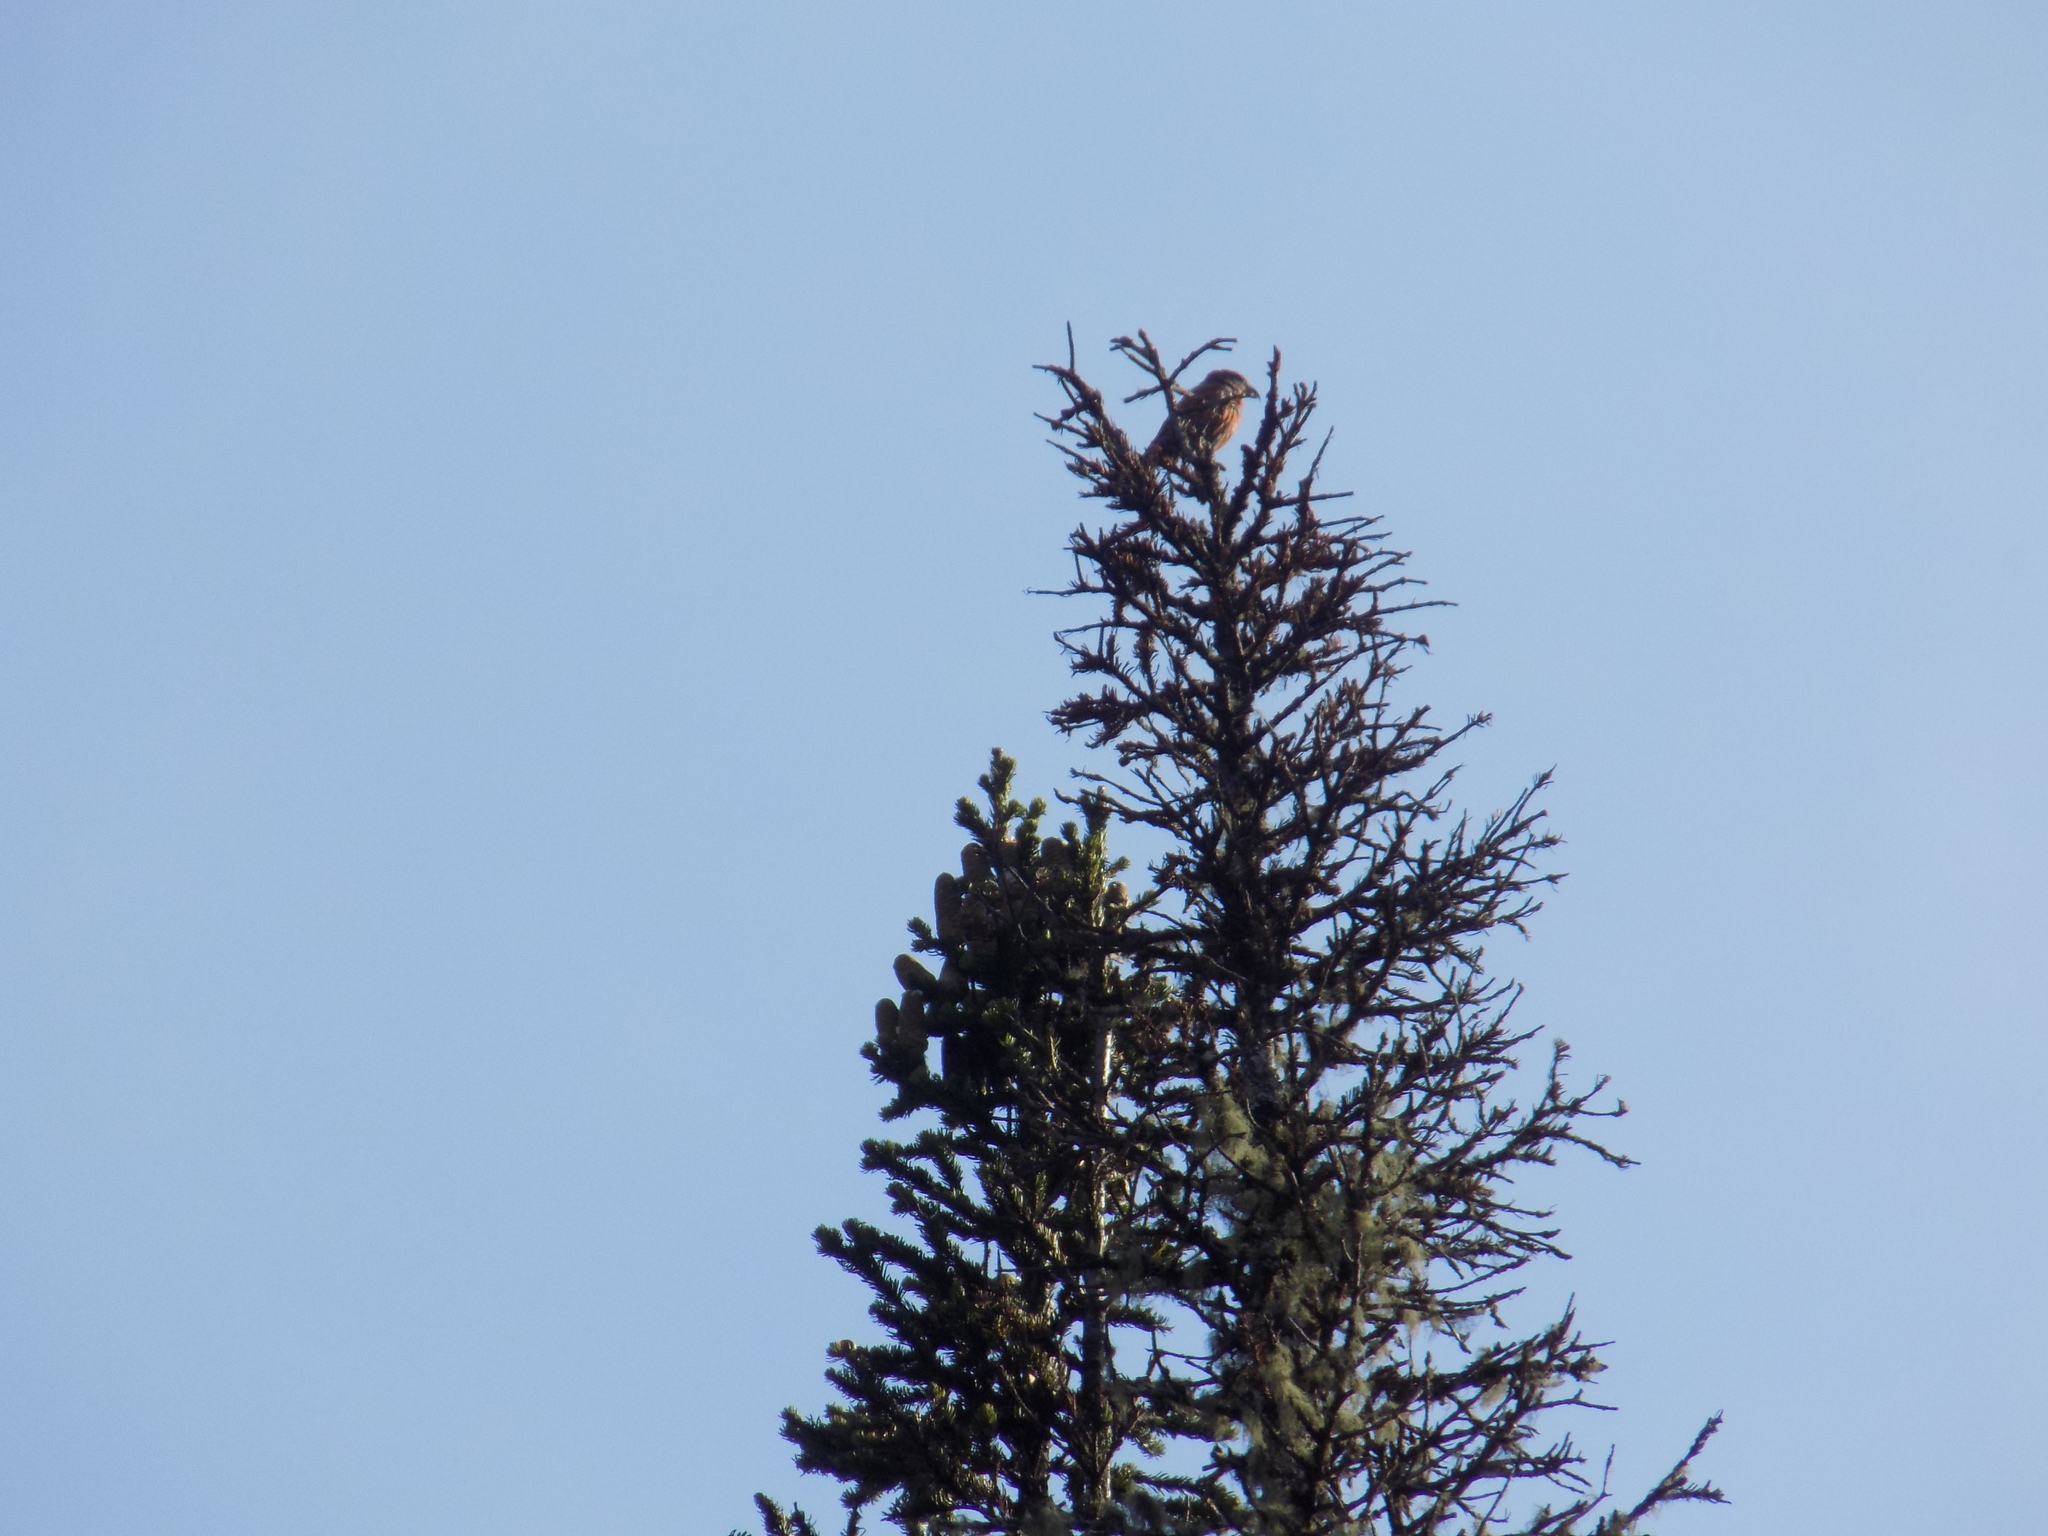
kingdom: Animalia
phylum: Chordata
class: Aves
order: Passeriformes
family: Fringillidae
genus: Loxia
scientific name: Loxia curvirostra
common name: Red crossbill
